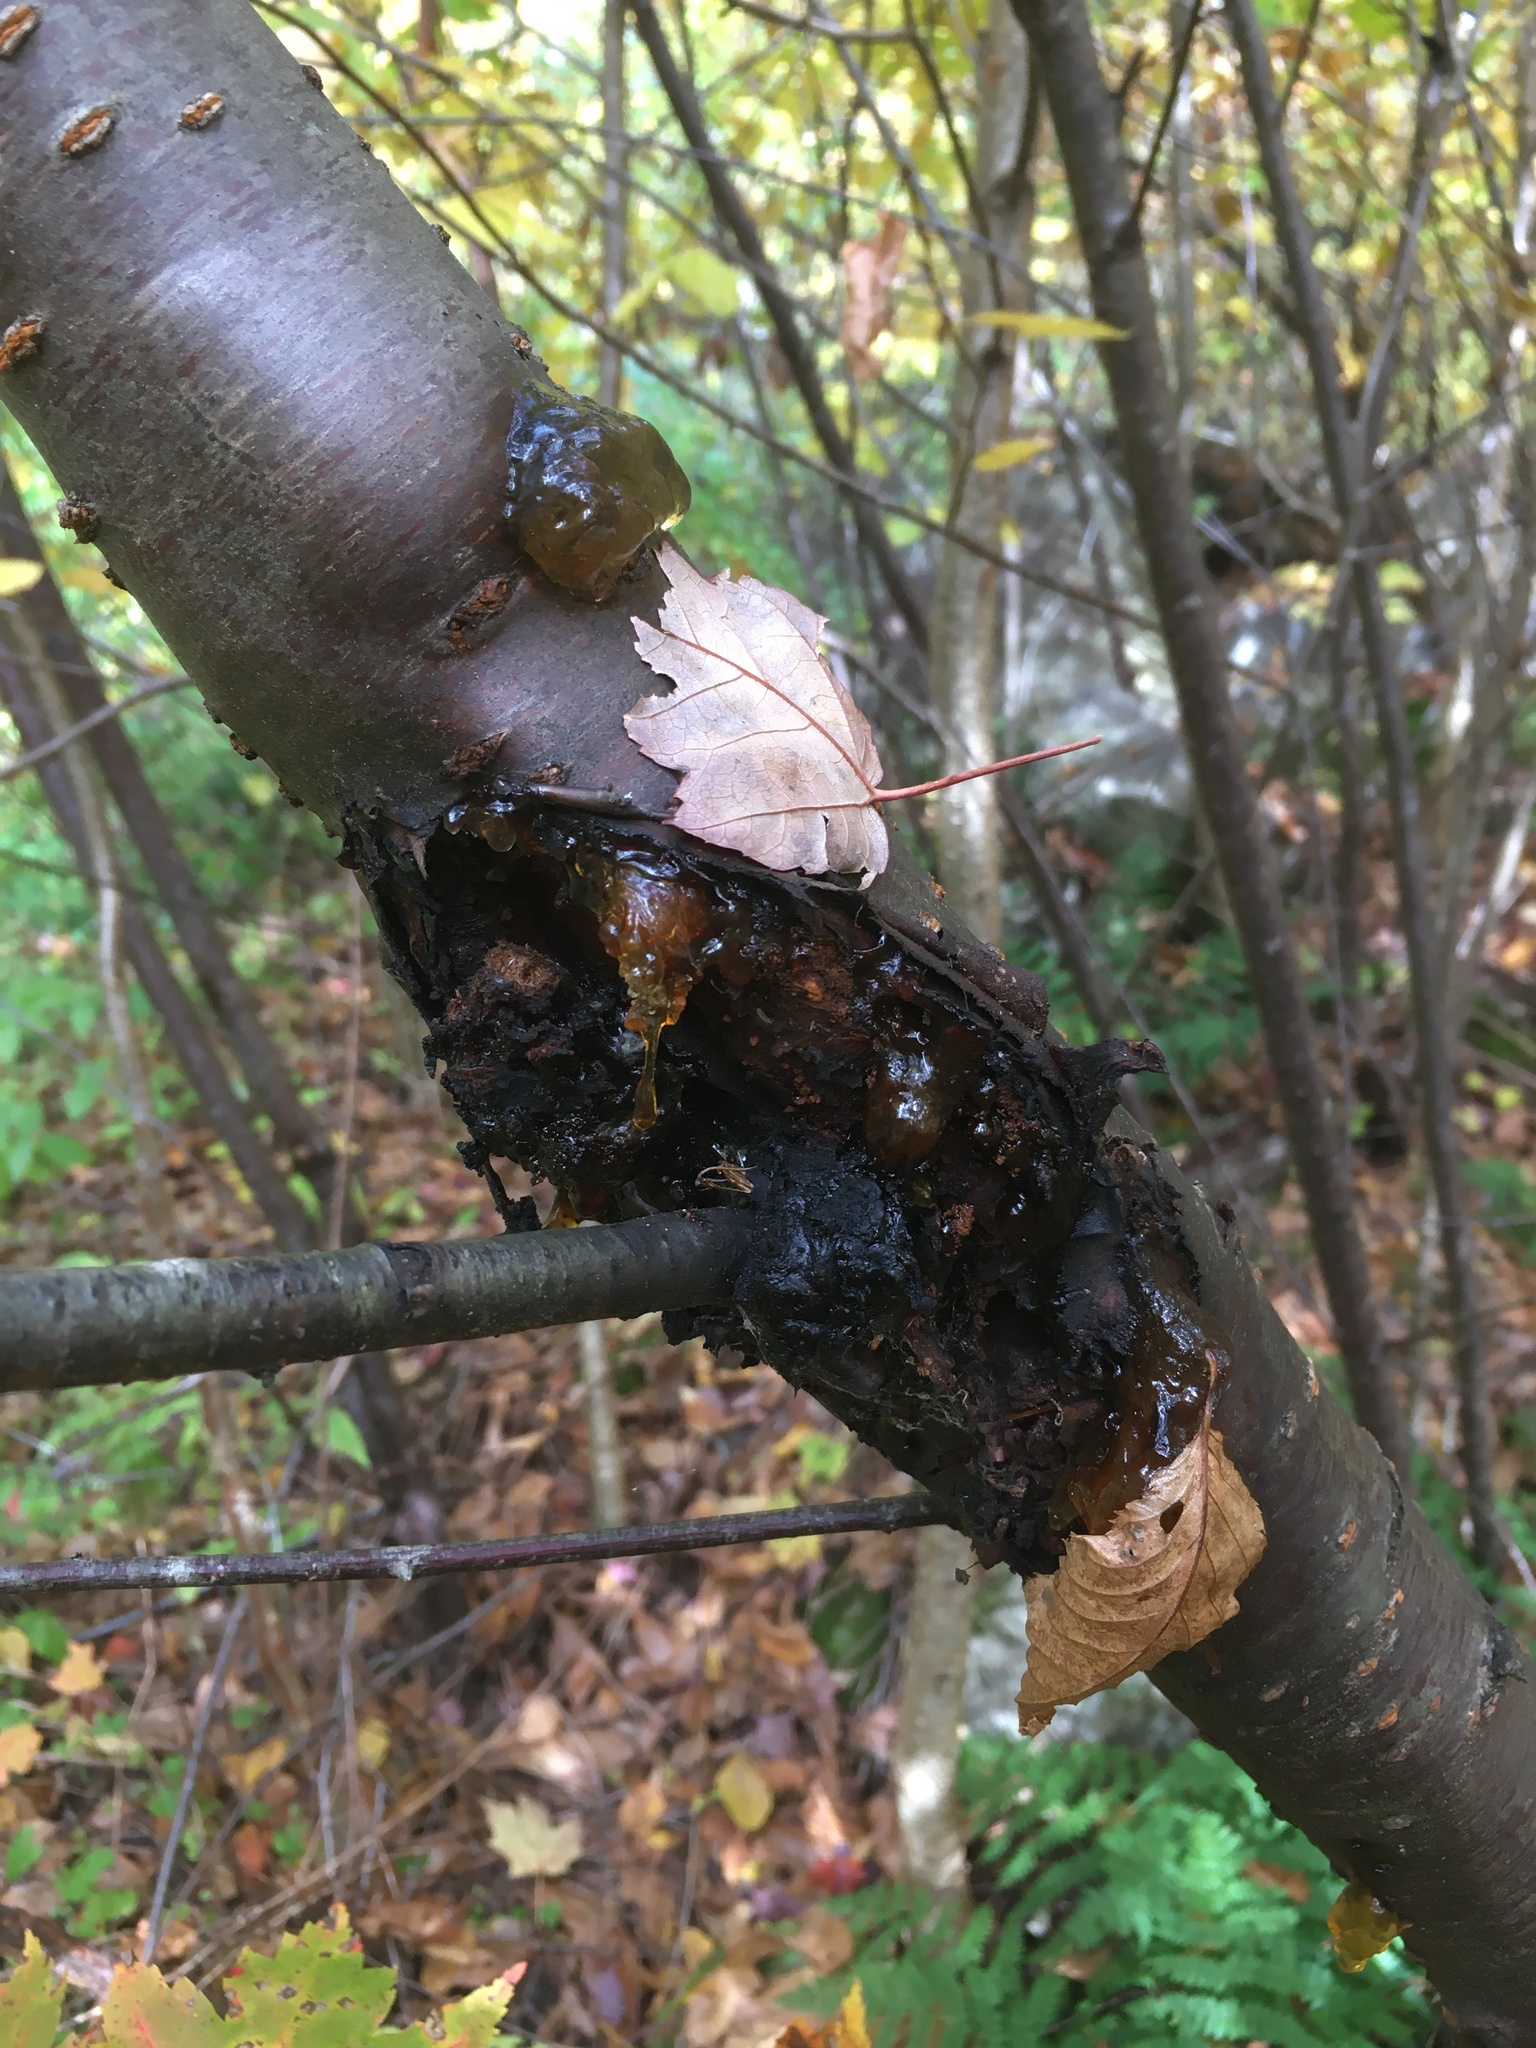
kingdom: Plantae
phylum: Tracheophyta
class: Magnoliopsida
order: Rosales
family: Rosaceae
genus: Prunus
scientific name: Prunus pensylvanica
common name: Pin cherry
